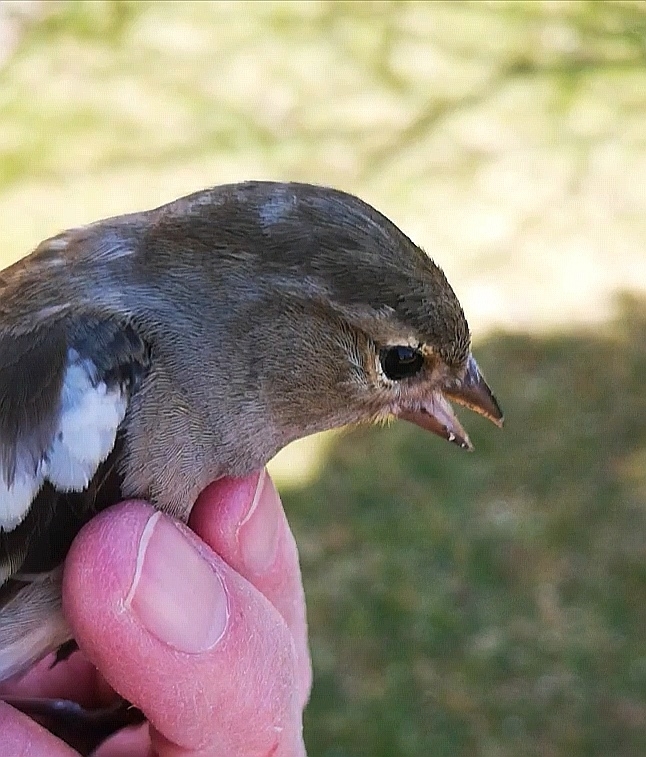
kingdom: Animalia
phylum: Chordata
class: Aves
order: Passeriformes
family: Fringillidae
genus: Fringilla
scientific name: Fringilla coelebs
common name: Common chaffinch
